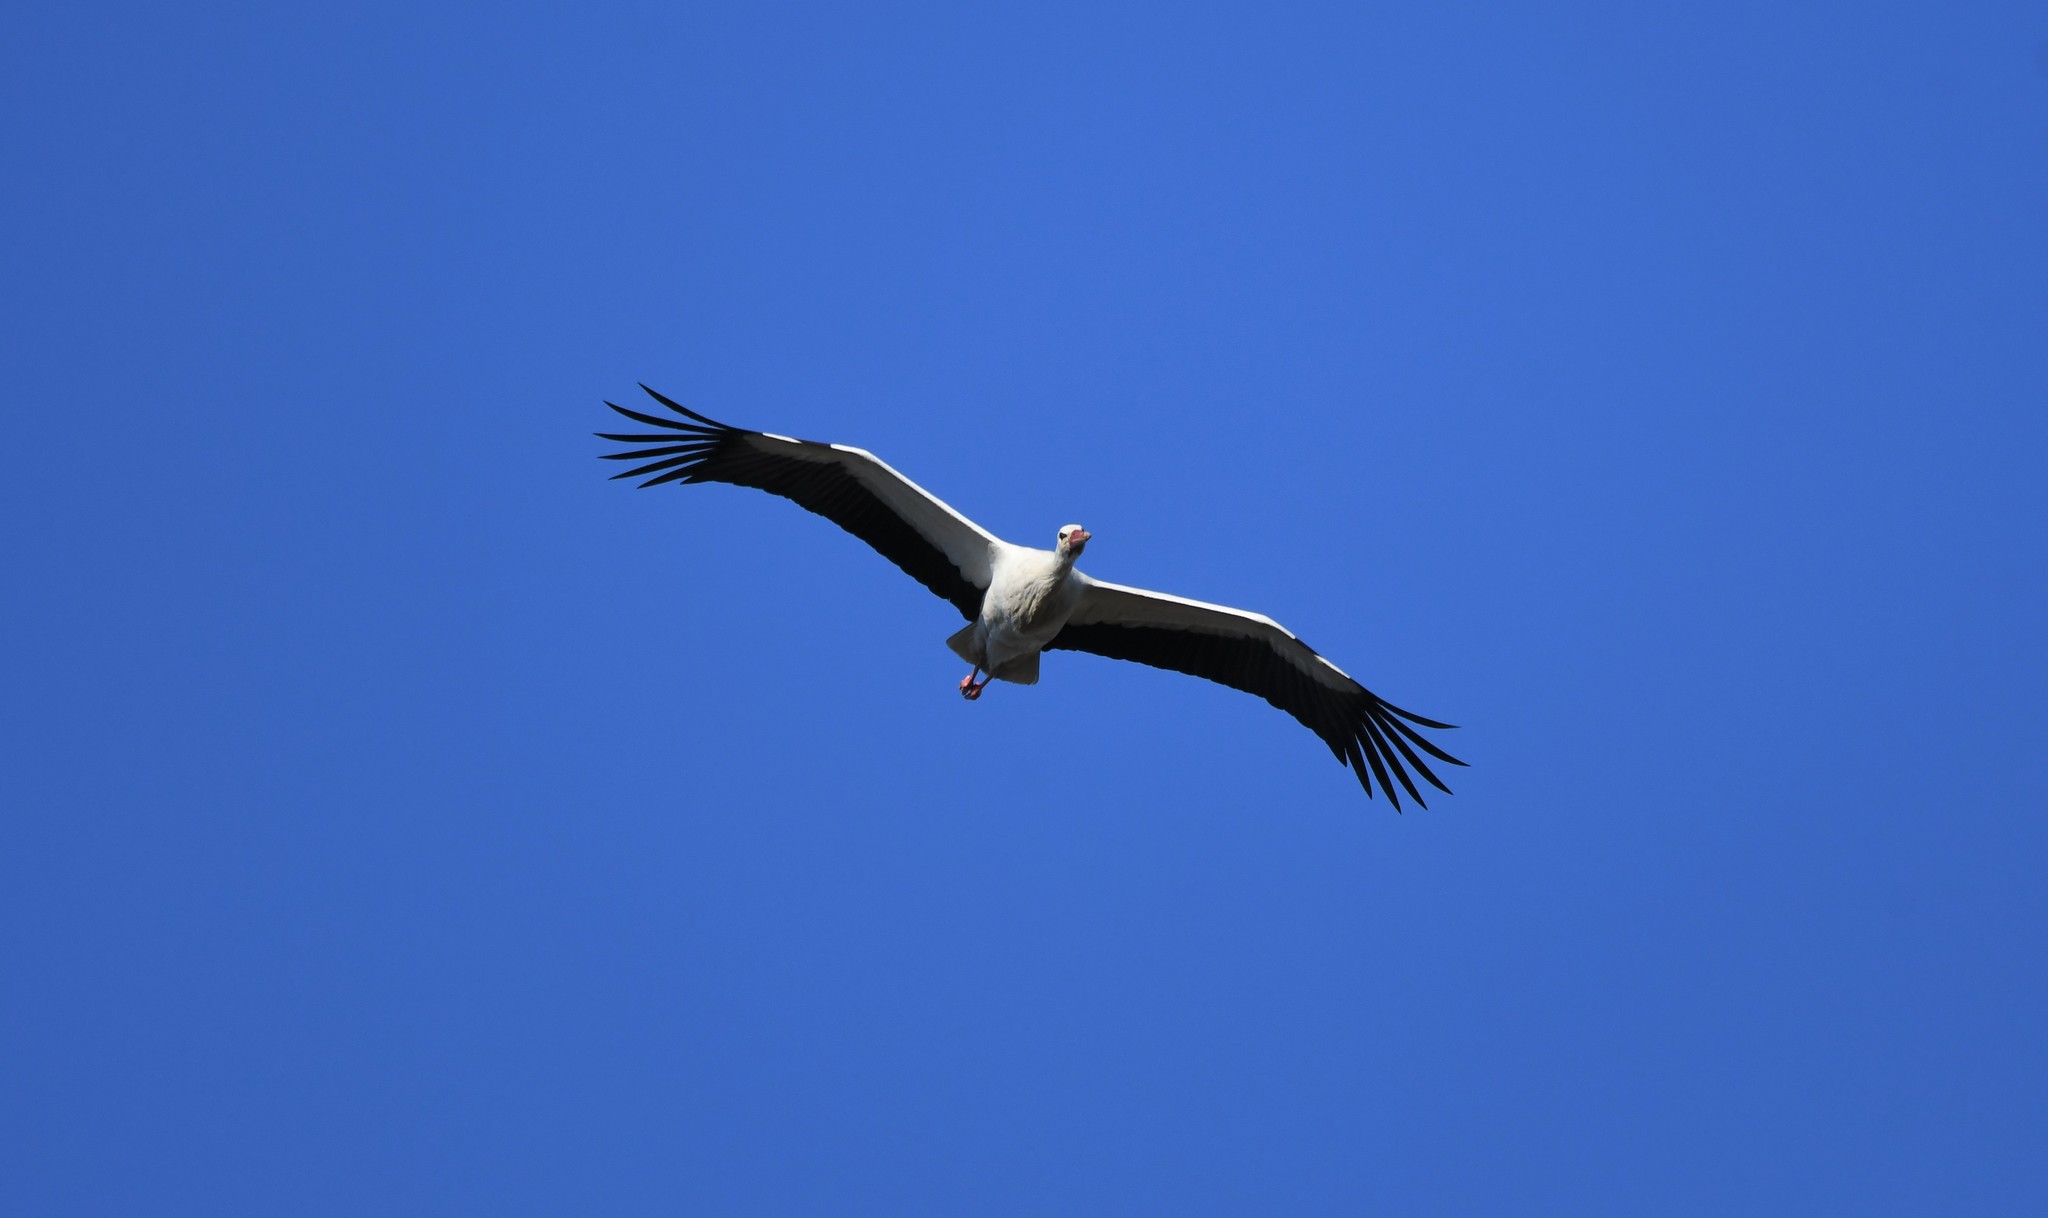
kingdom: Animalia
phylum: Chordata
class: Aves
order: Ciconiiformes
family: Ciconiidae
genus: Ciconia
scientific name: Ciconia ciconia
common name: White stork
